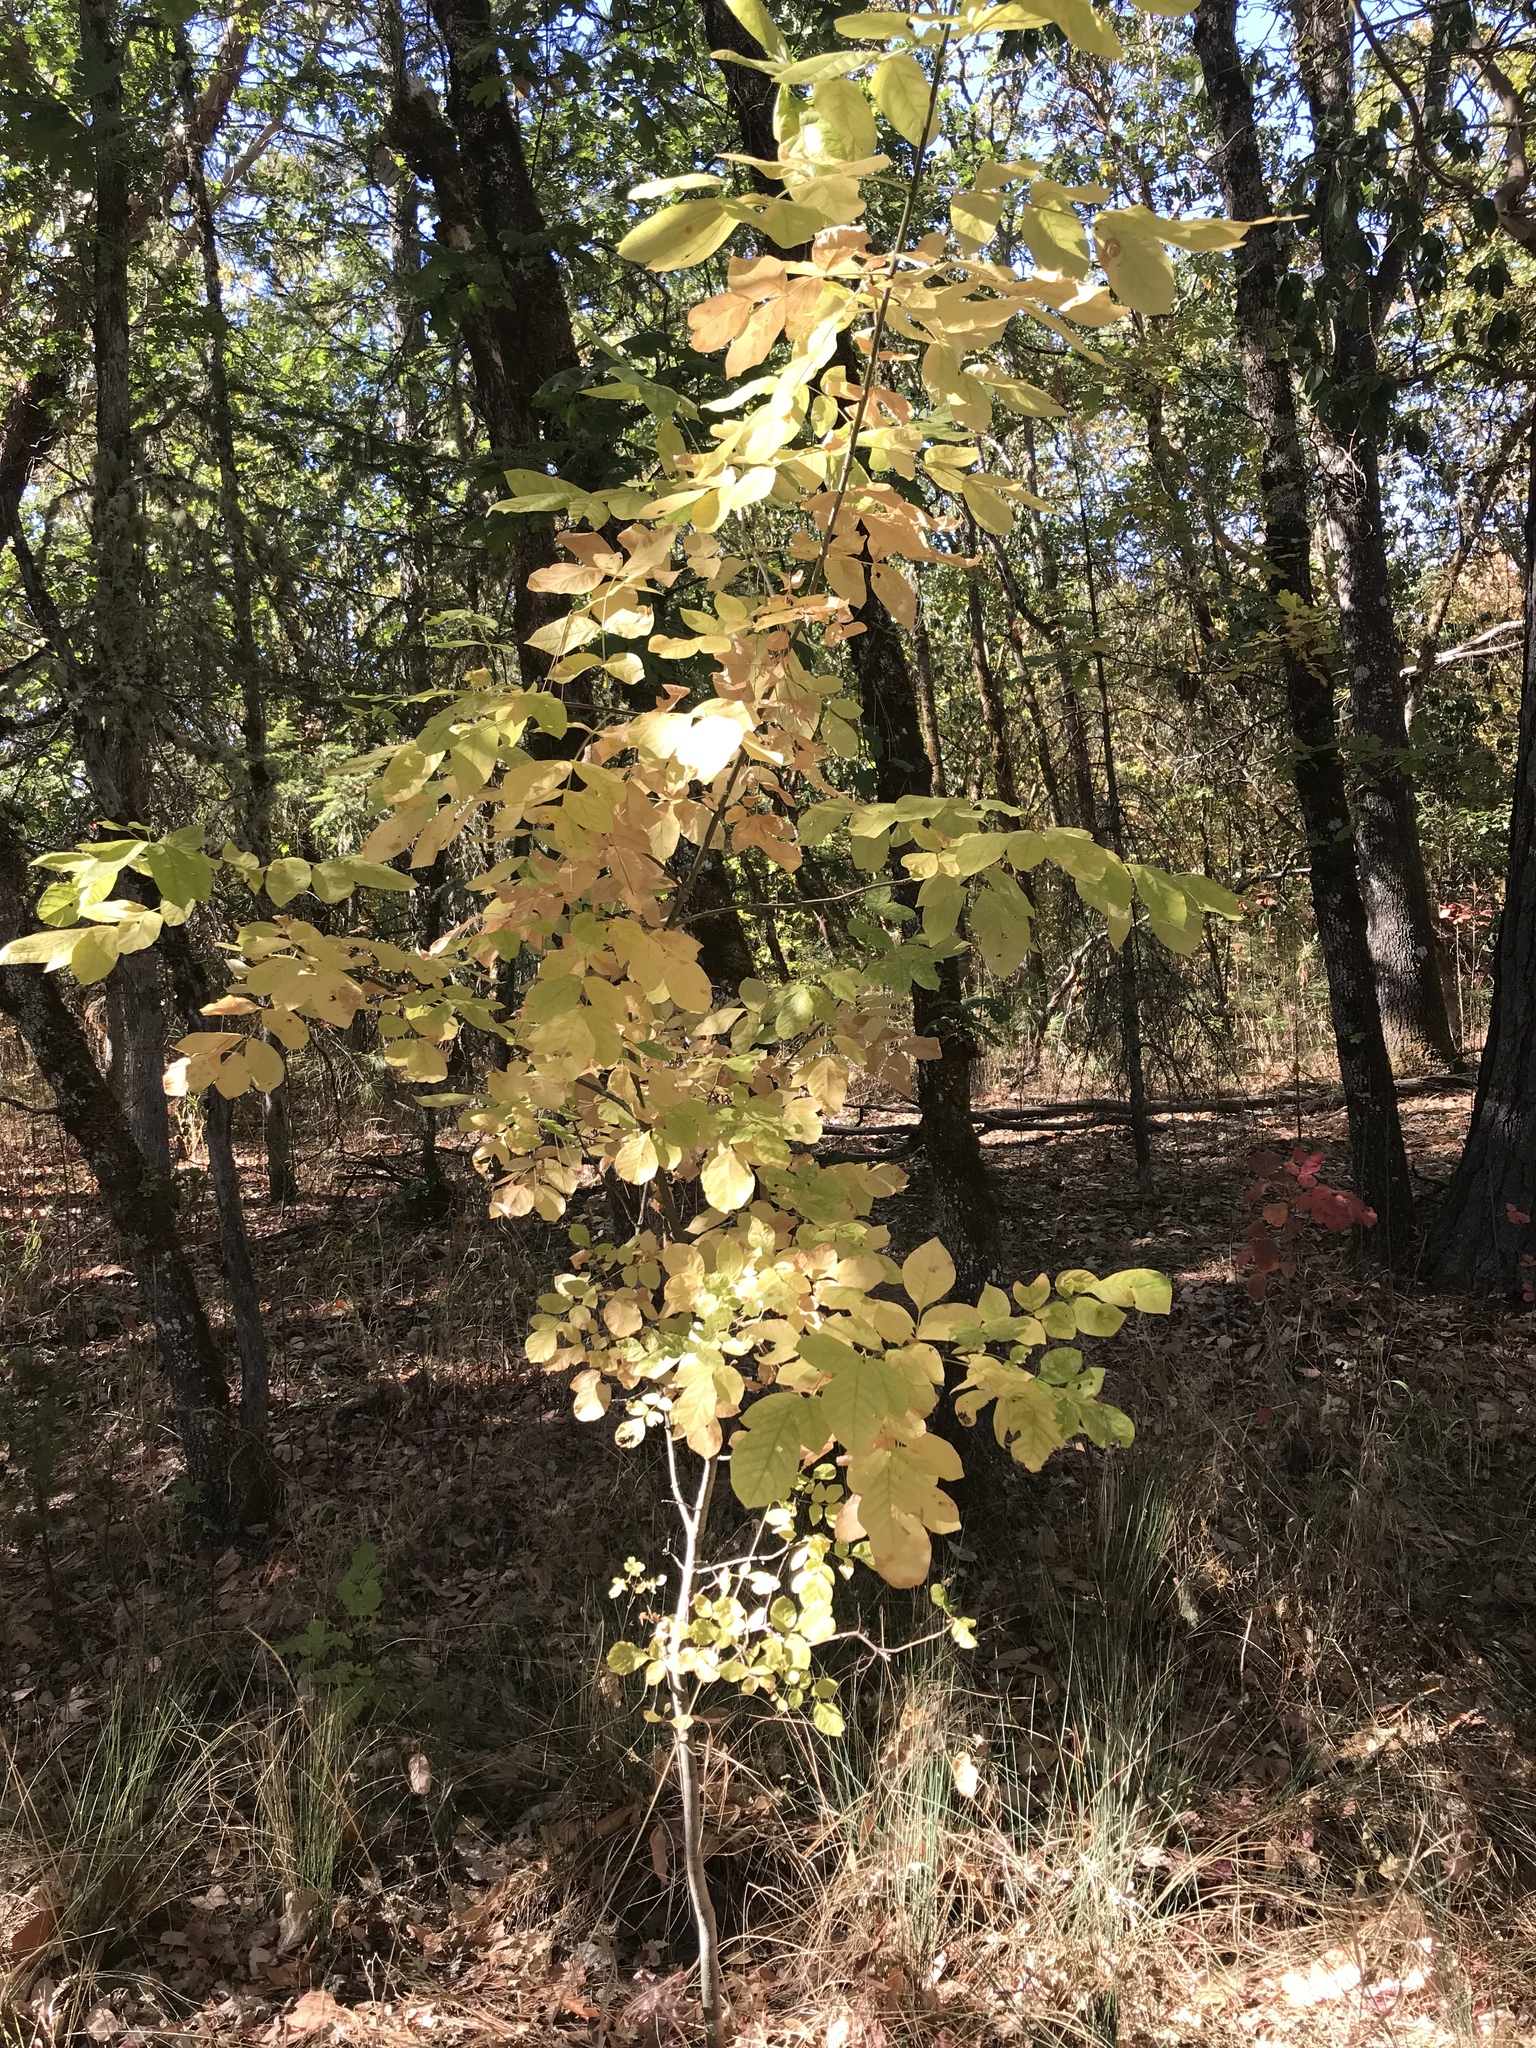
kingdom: Plantae
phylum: Tracheophyta
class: Magnoliopsida
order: Lamiales
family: Oleaceae
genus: Fraxinus
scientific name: Fraxinus latifolia
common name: Oregon ash
